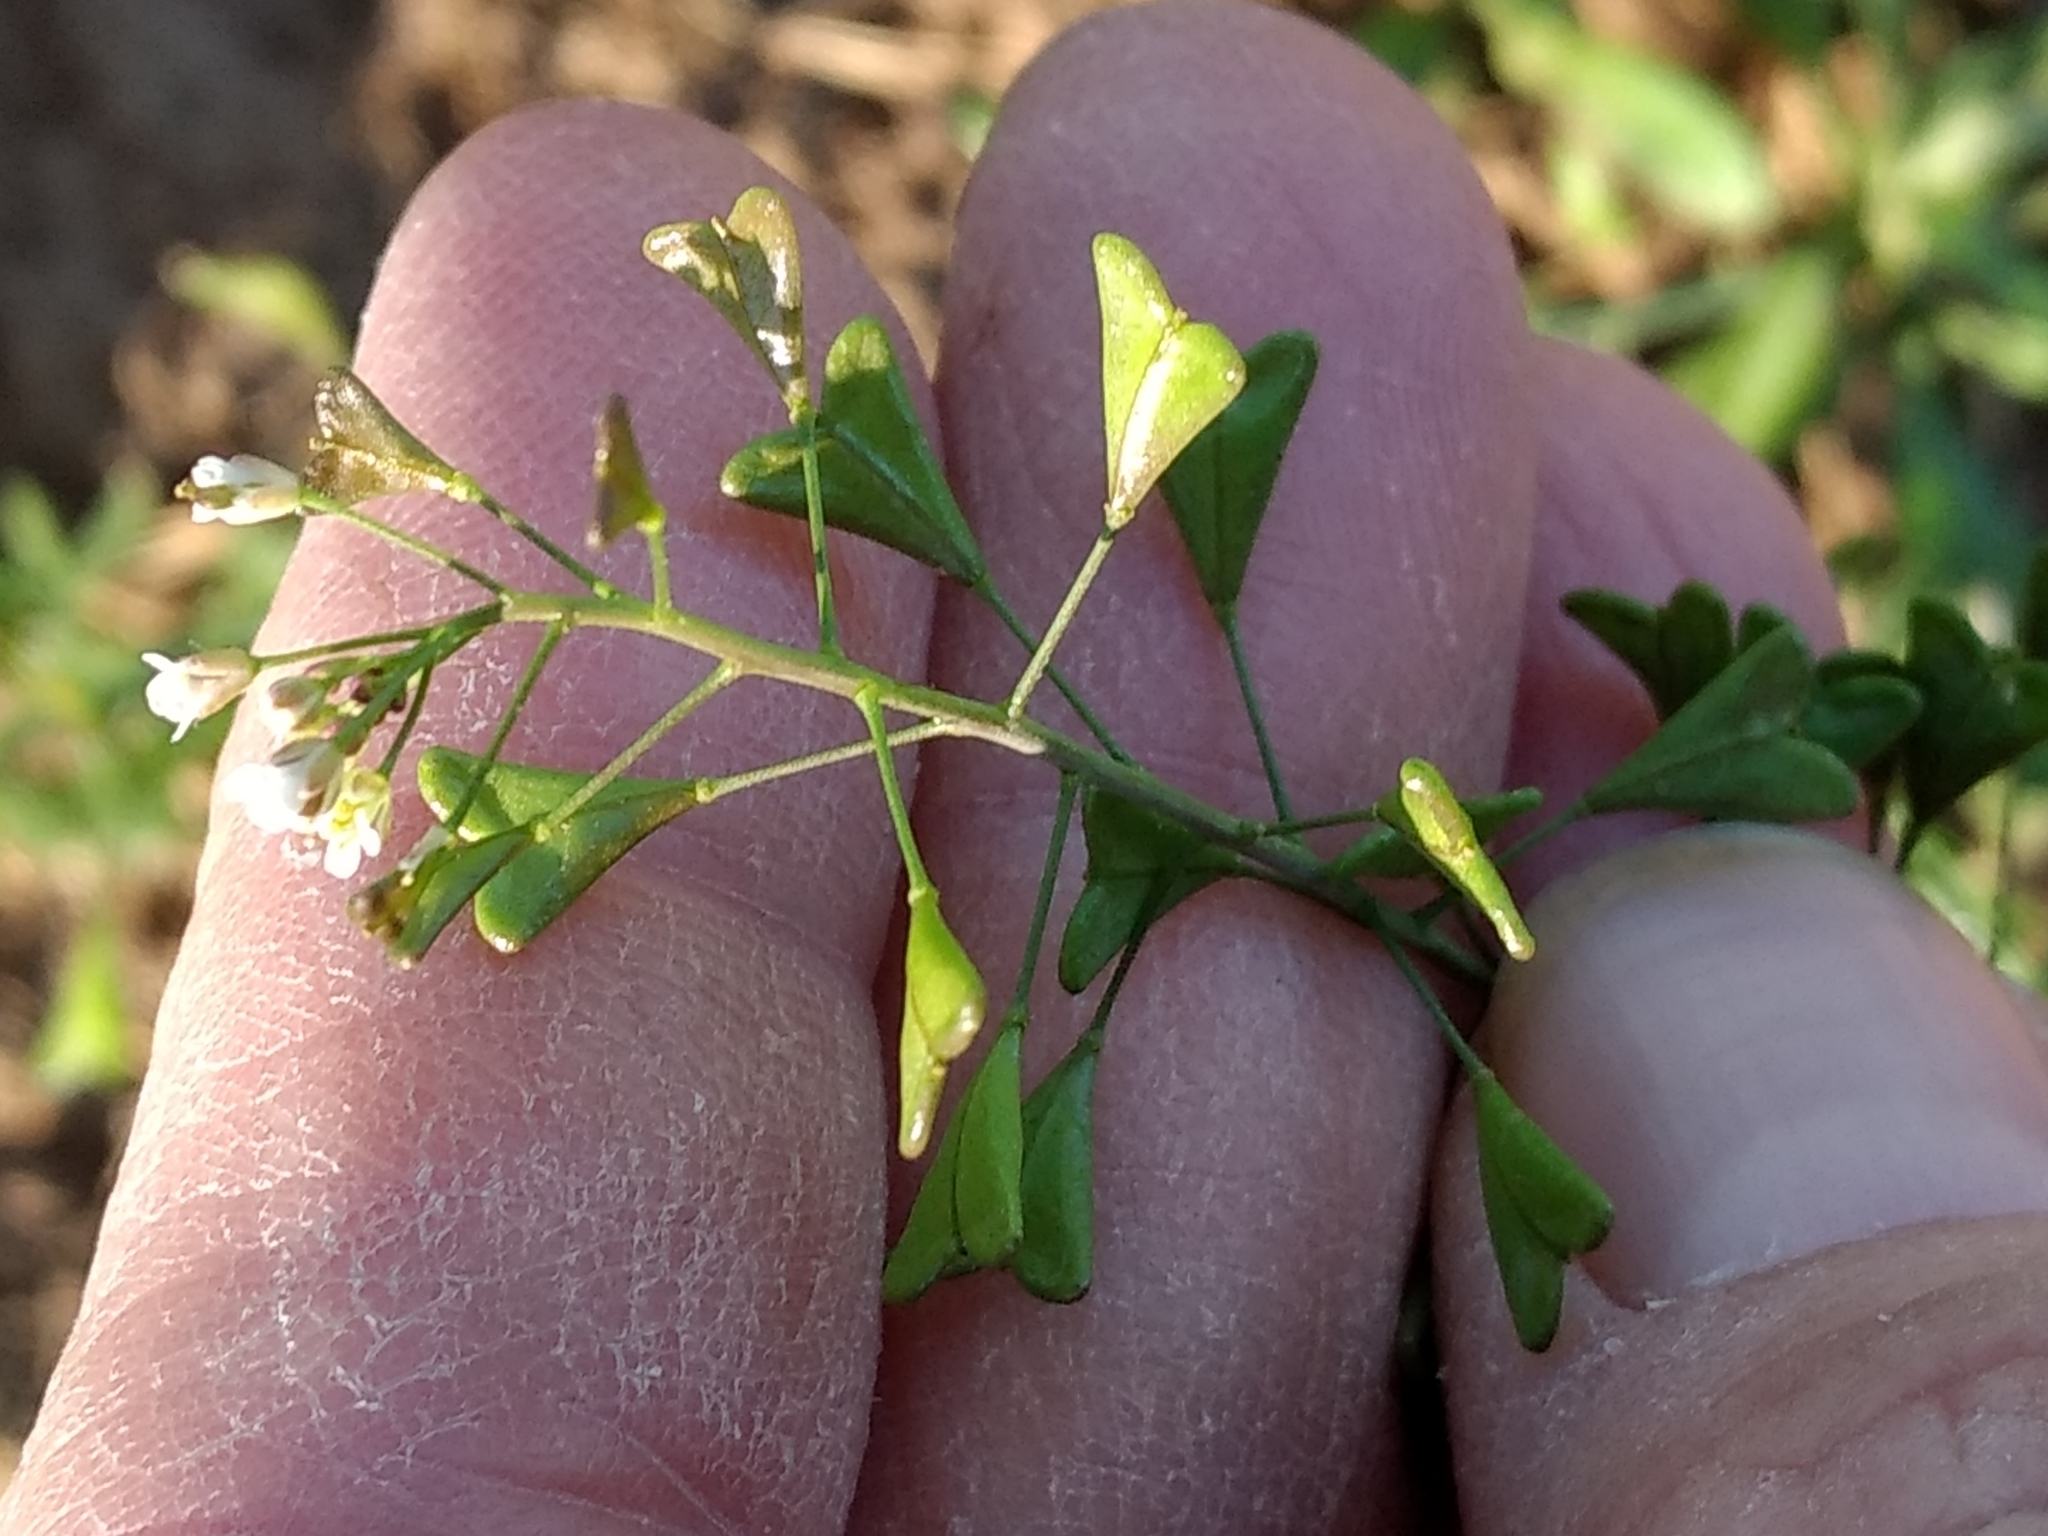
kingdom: Plantae
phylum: Tracheophyta
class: Magnoliopsida
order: Brassicales
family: Brassicaceae
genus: Capsella
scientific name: Capsella bursa-pastoris
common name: Shepherd's purse
